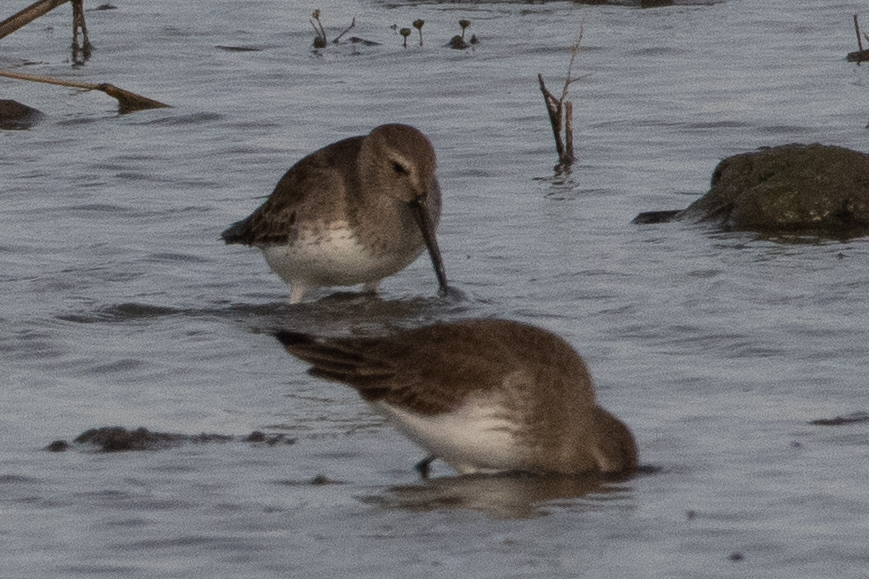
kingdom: Animalia
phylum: Chordata
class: Aves
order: Charadriiformes
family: Scolopacidae
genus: Calidris
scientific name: Calidris alpina
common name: Dunlin
